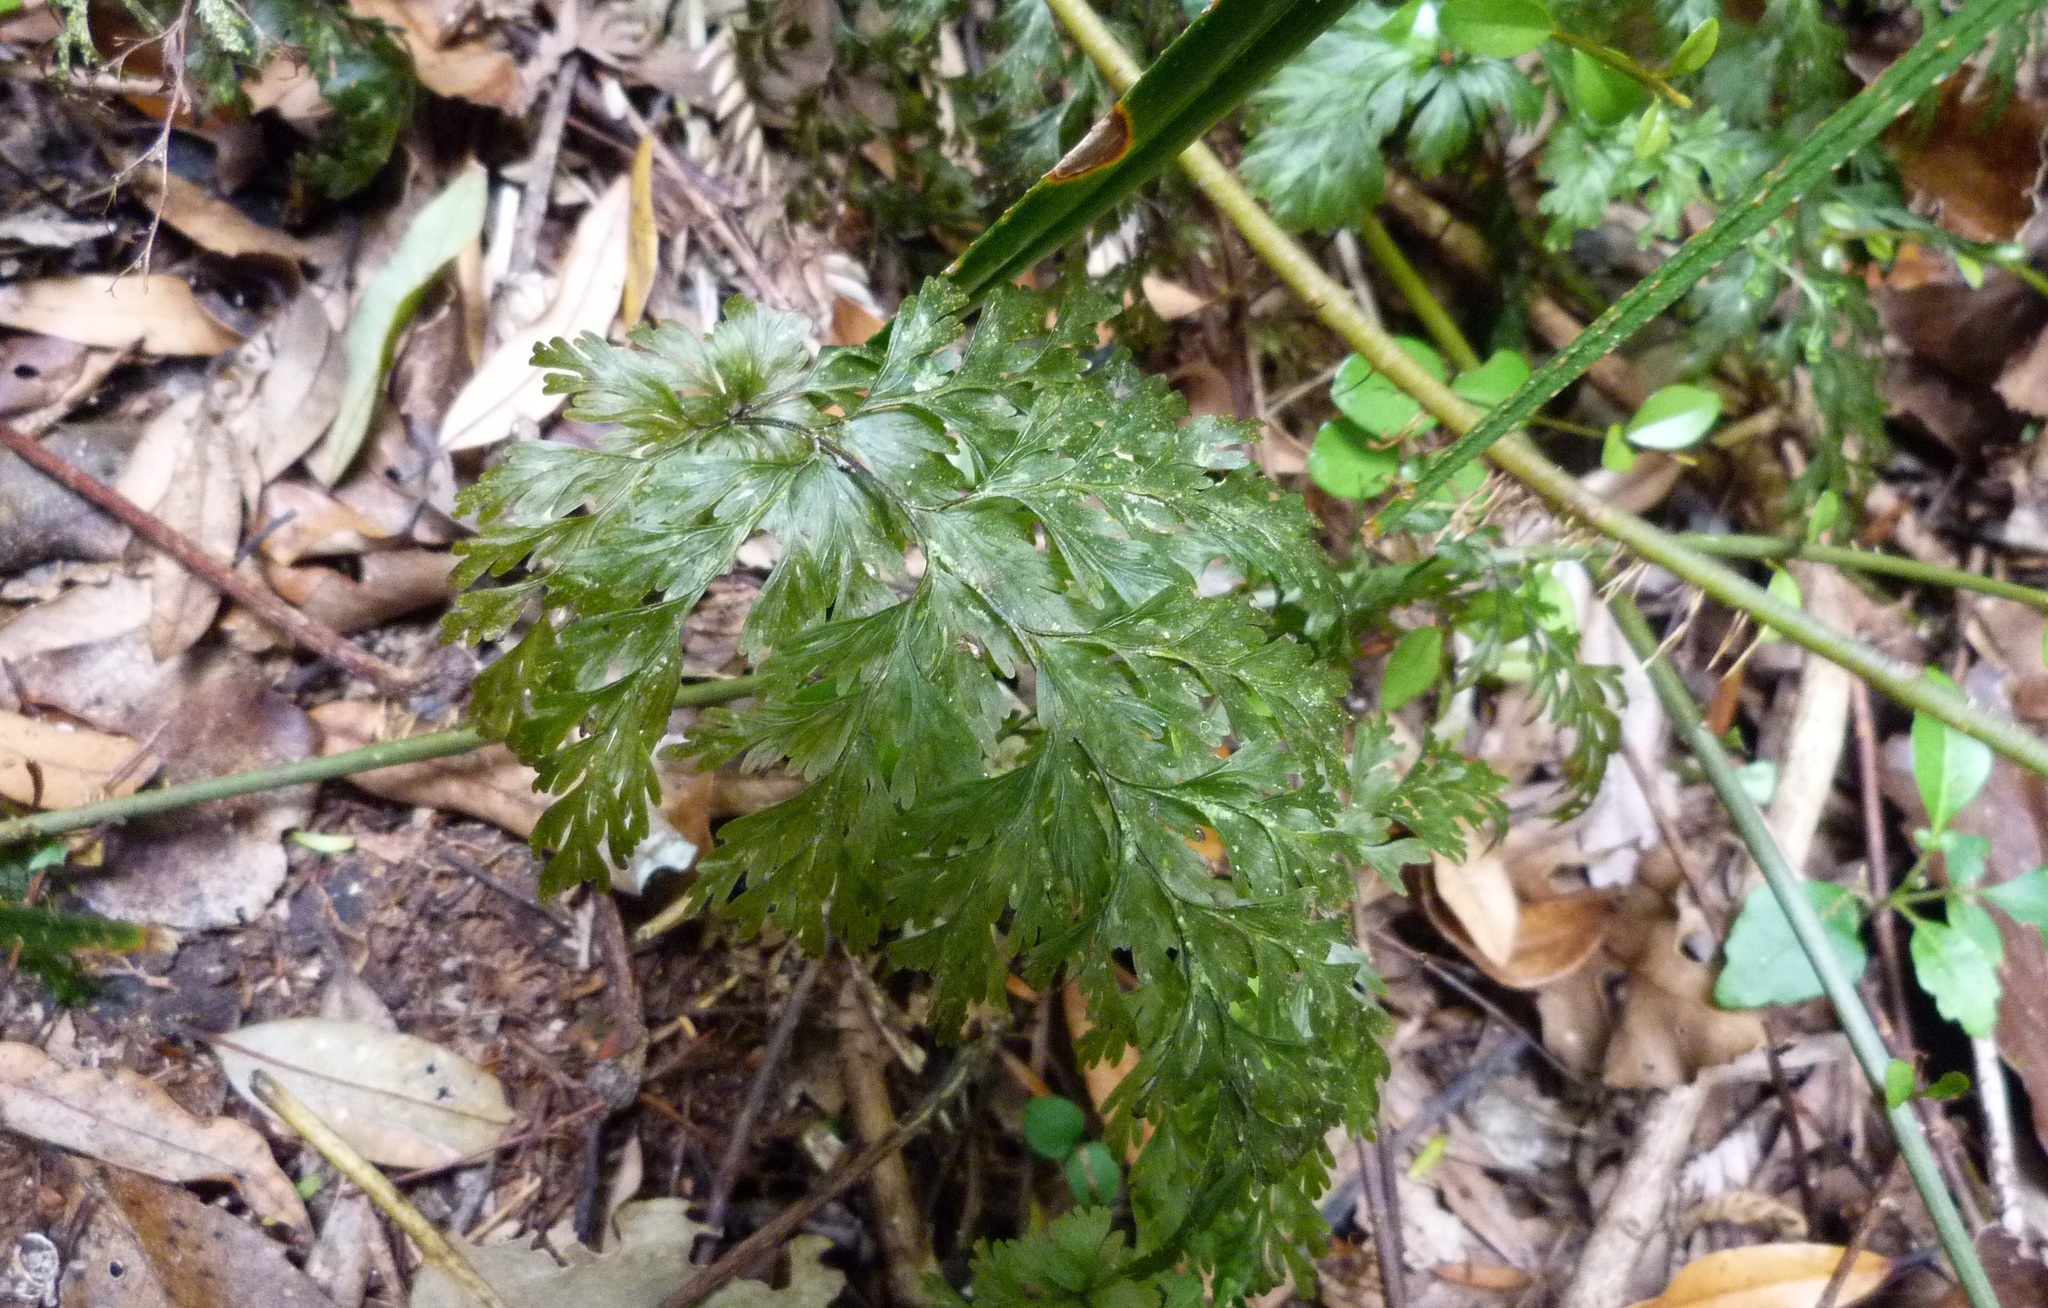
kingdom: Plantae
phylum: Tracheophyta
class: Polypodiopsida
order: Hymenophyllales
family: Hymenophyllaceae
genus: Hymenophyllum
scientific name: Hymenophyllum demissum
